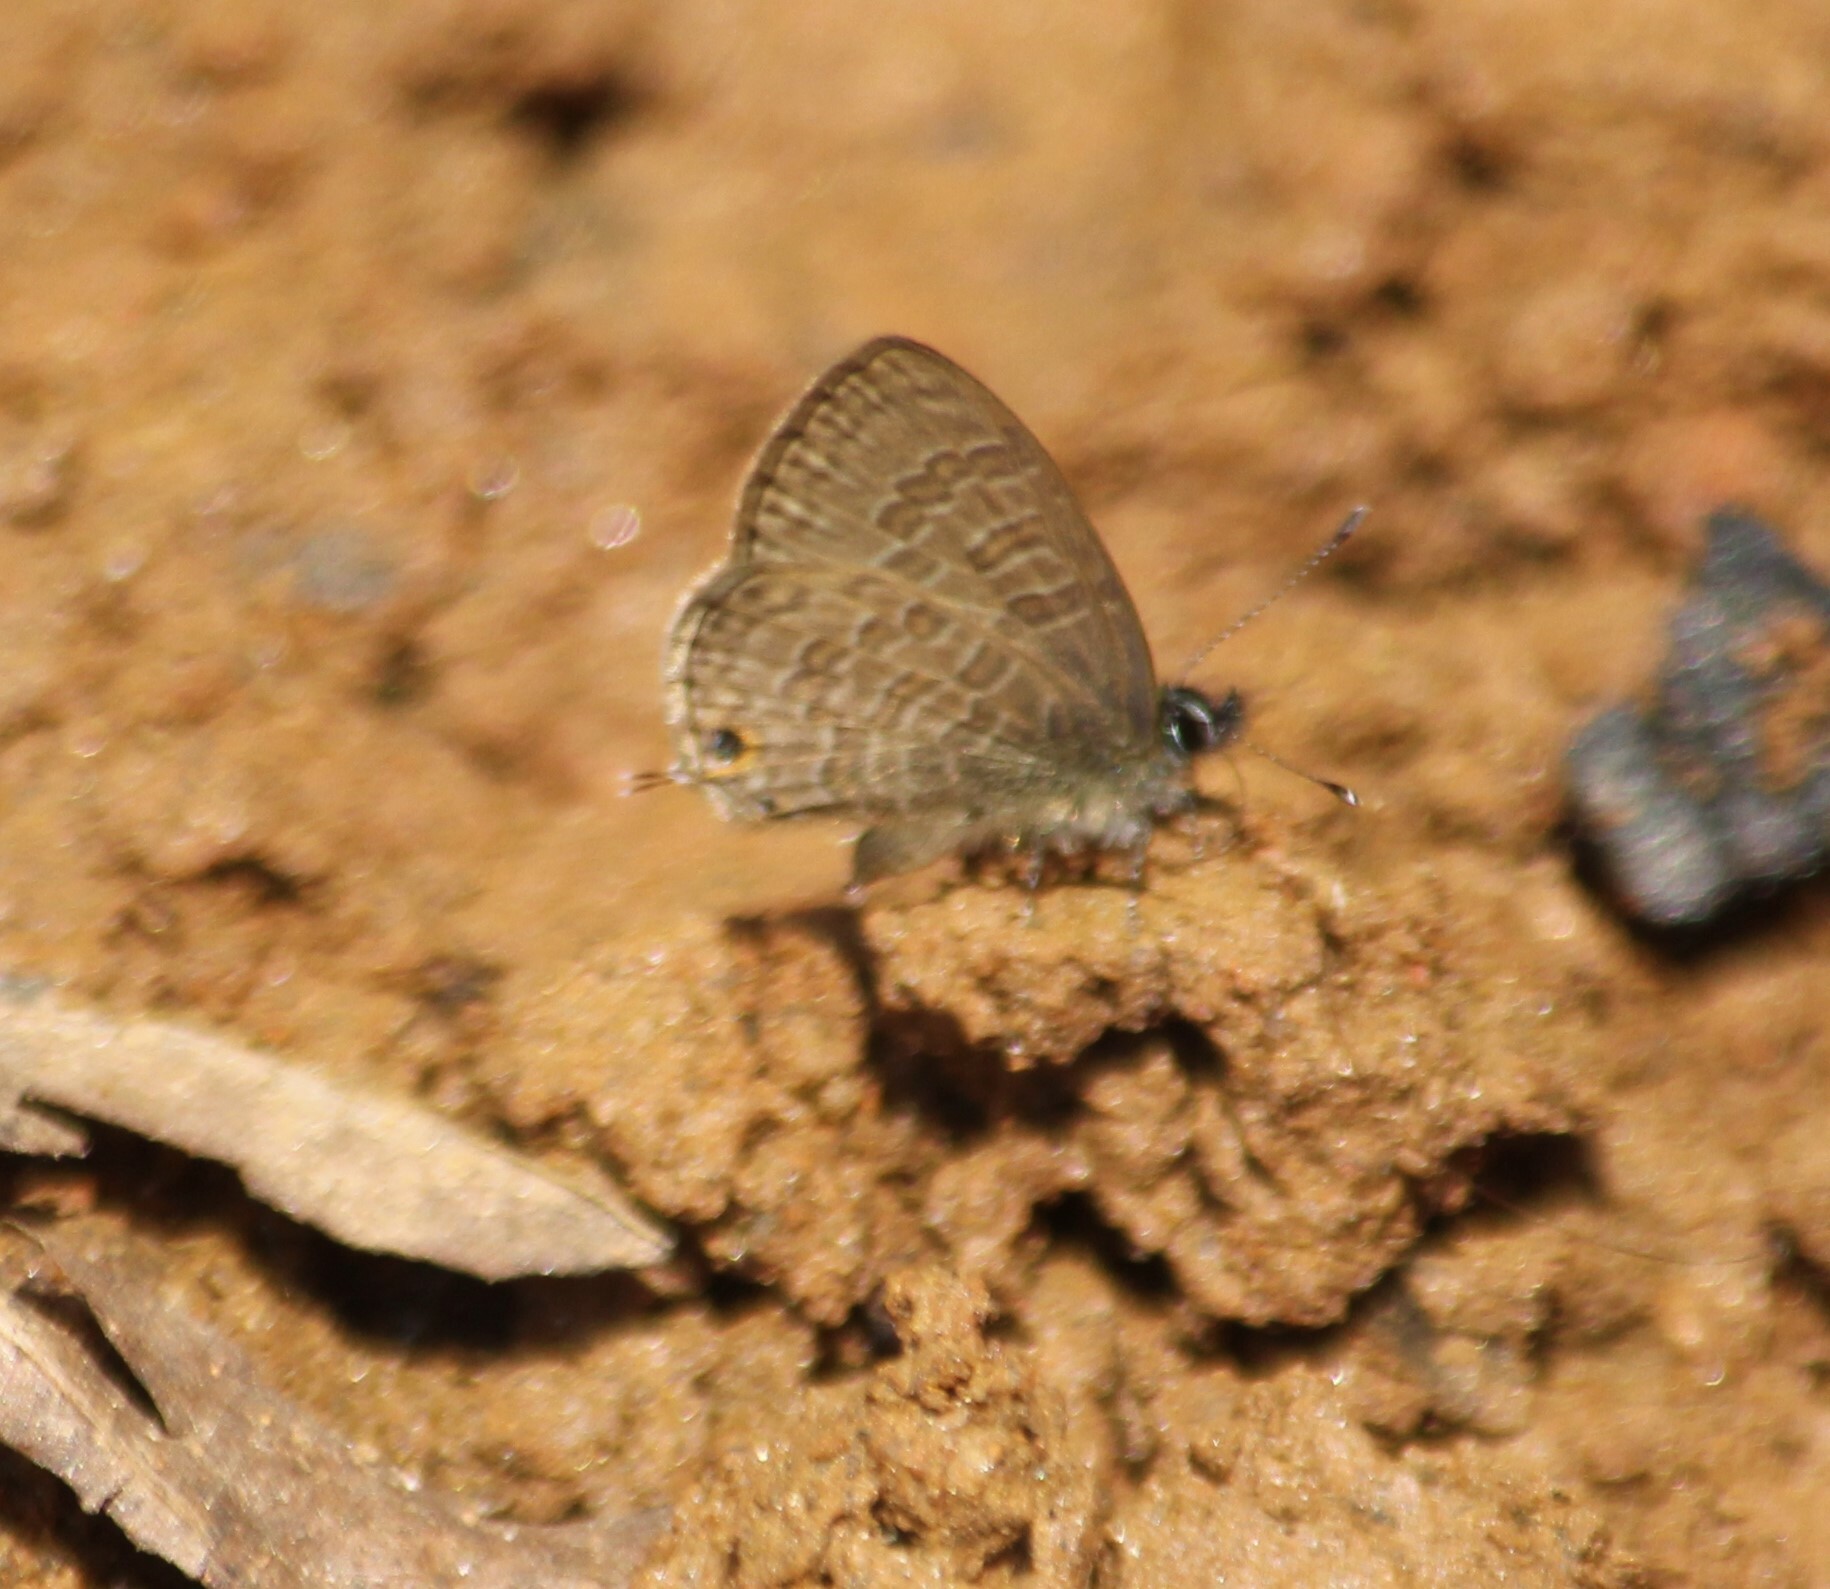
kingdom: Animalia
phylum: Arthropoda
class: Insecta
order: Lepidoptera
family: Lycaenidae
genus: Prosotas
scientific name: Prosotas nora
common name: Common line blue
